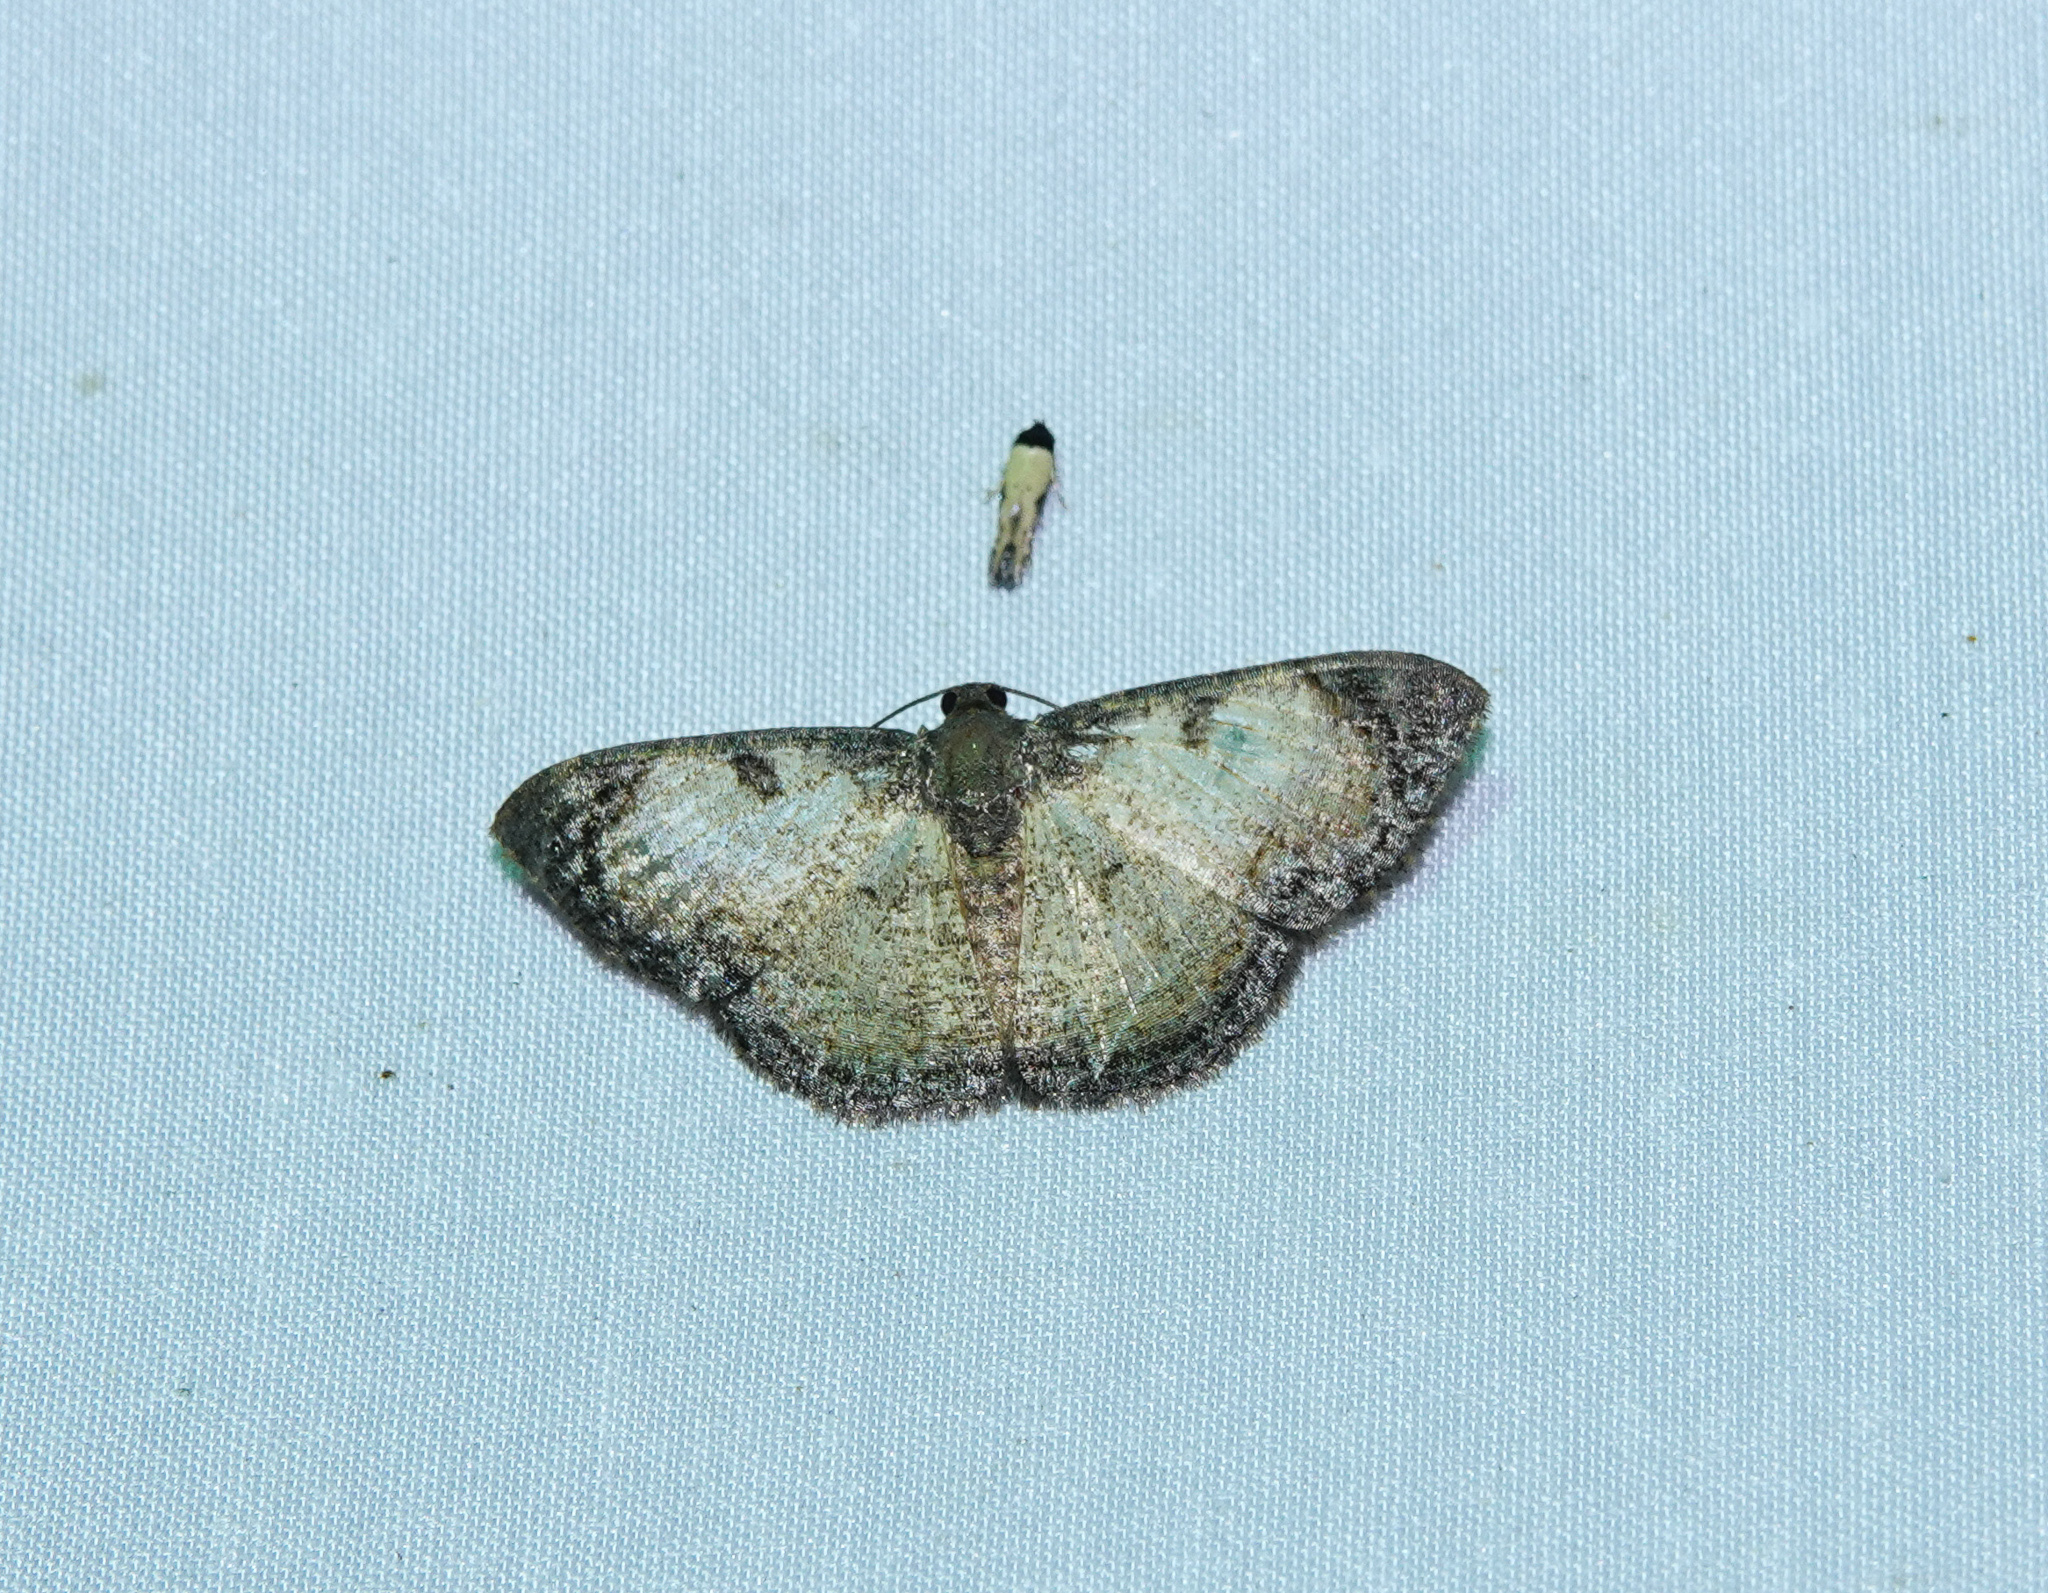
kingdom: Animalia
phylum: Arthropoda
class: Insecta
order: Lepidoptera
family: Geometridae
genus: Hydatocapnia
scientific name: Hydatocapnia gemina
